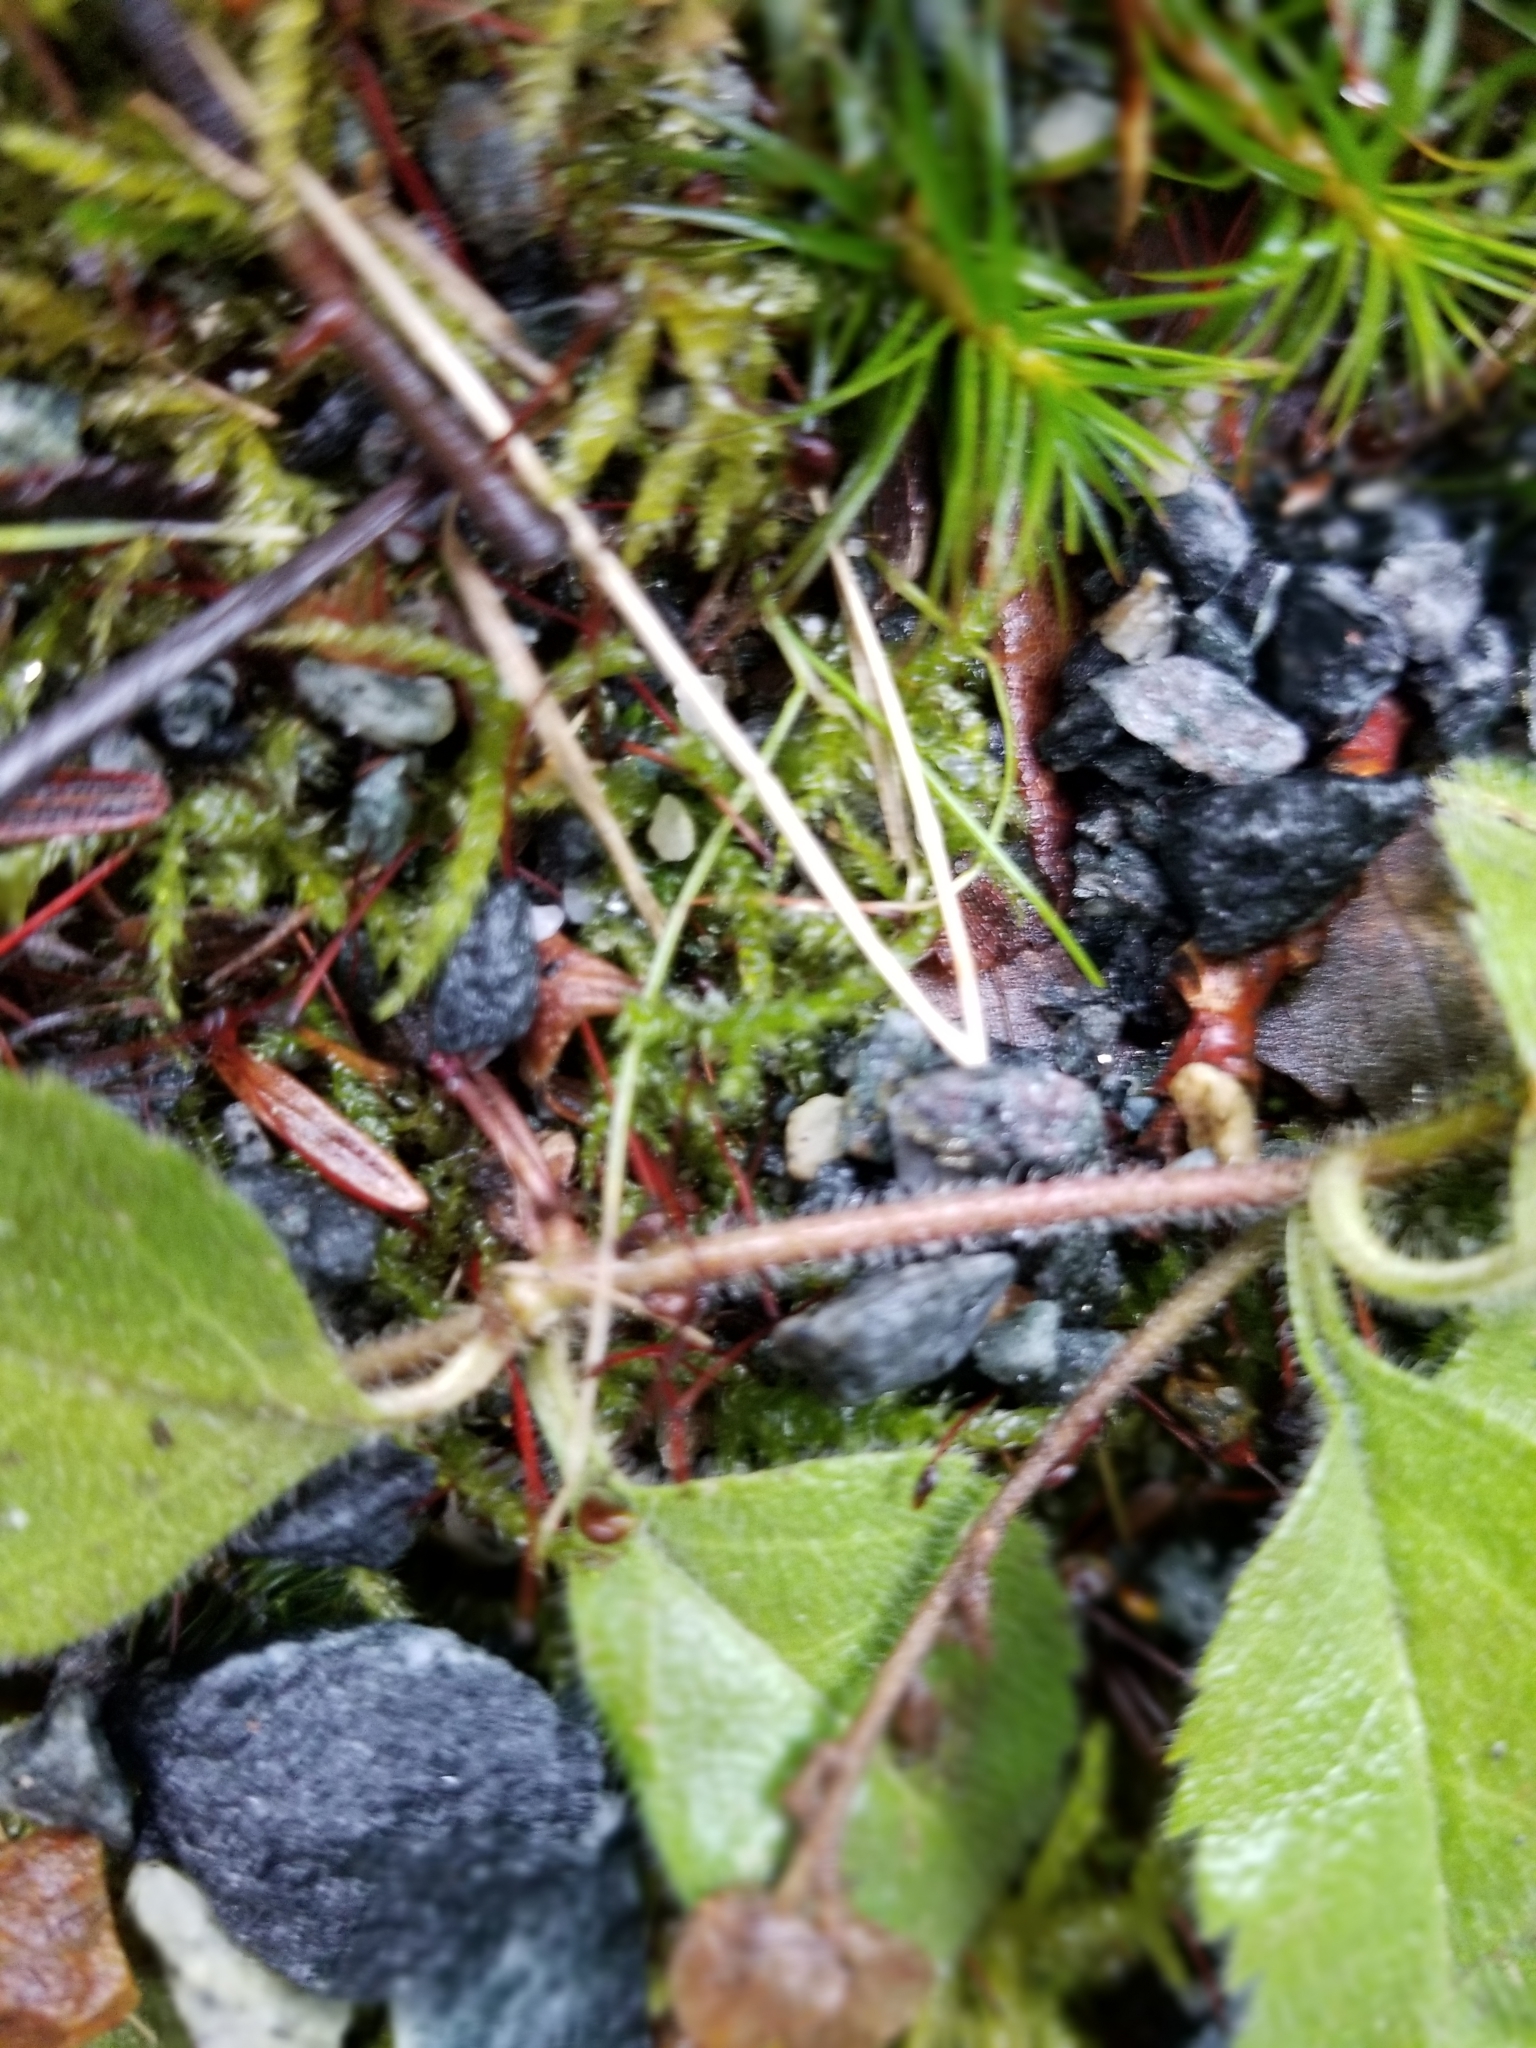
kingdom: Plantae
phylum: Tracheophyta
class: Magnoliopsida
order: Lamiales
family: Plantaginaceae
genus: Veronica
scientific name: Veronica officinalis
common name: Common speedwell
